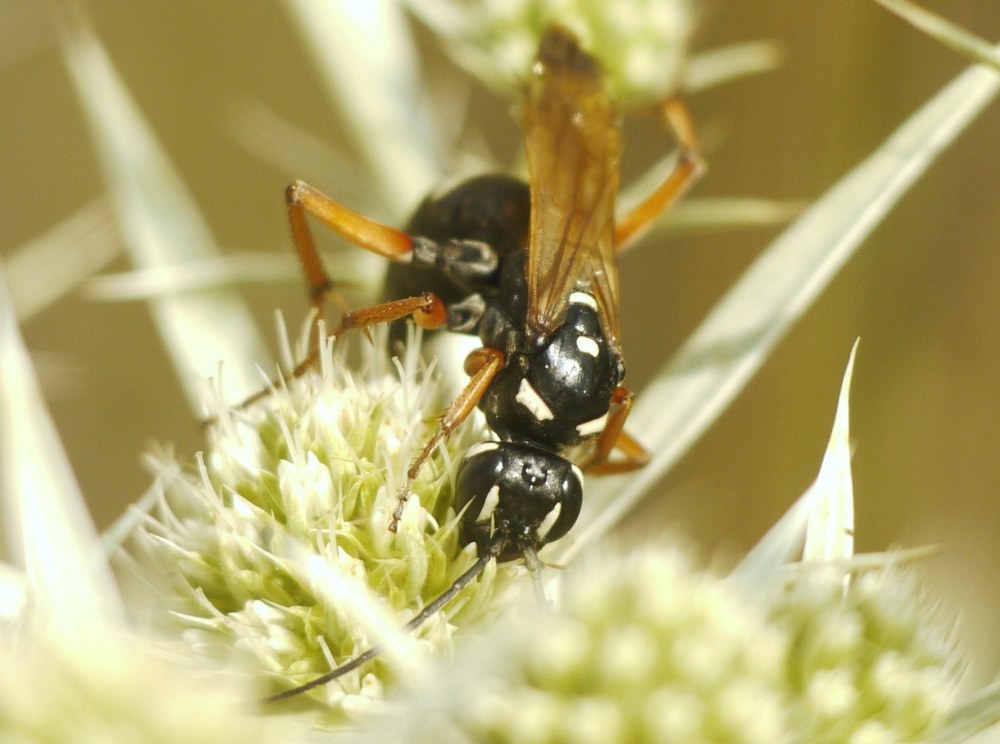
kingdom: Animalia
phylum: Arthropoda
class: Insecta
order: Hymenoptera
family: Pompilidae
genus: Cryptocheilus
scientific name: Cryptocheilus variabilis
